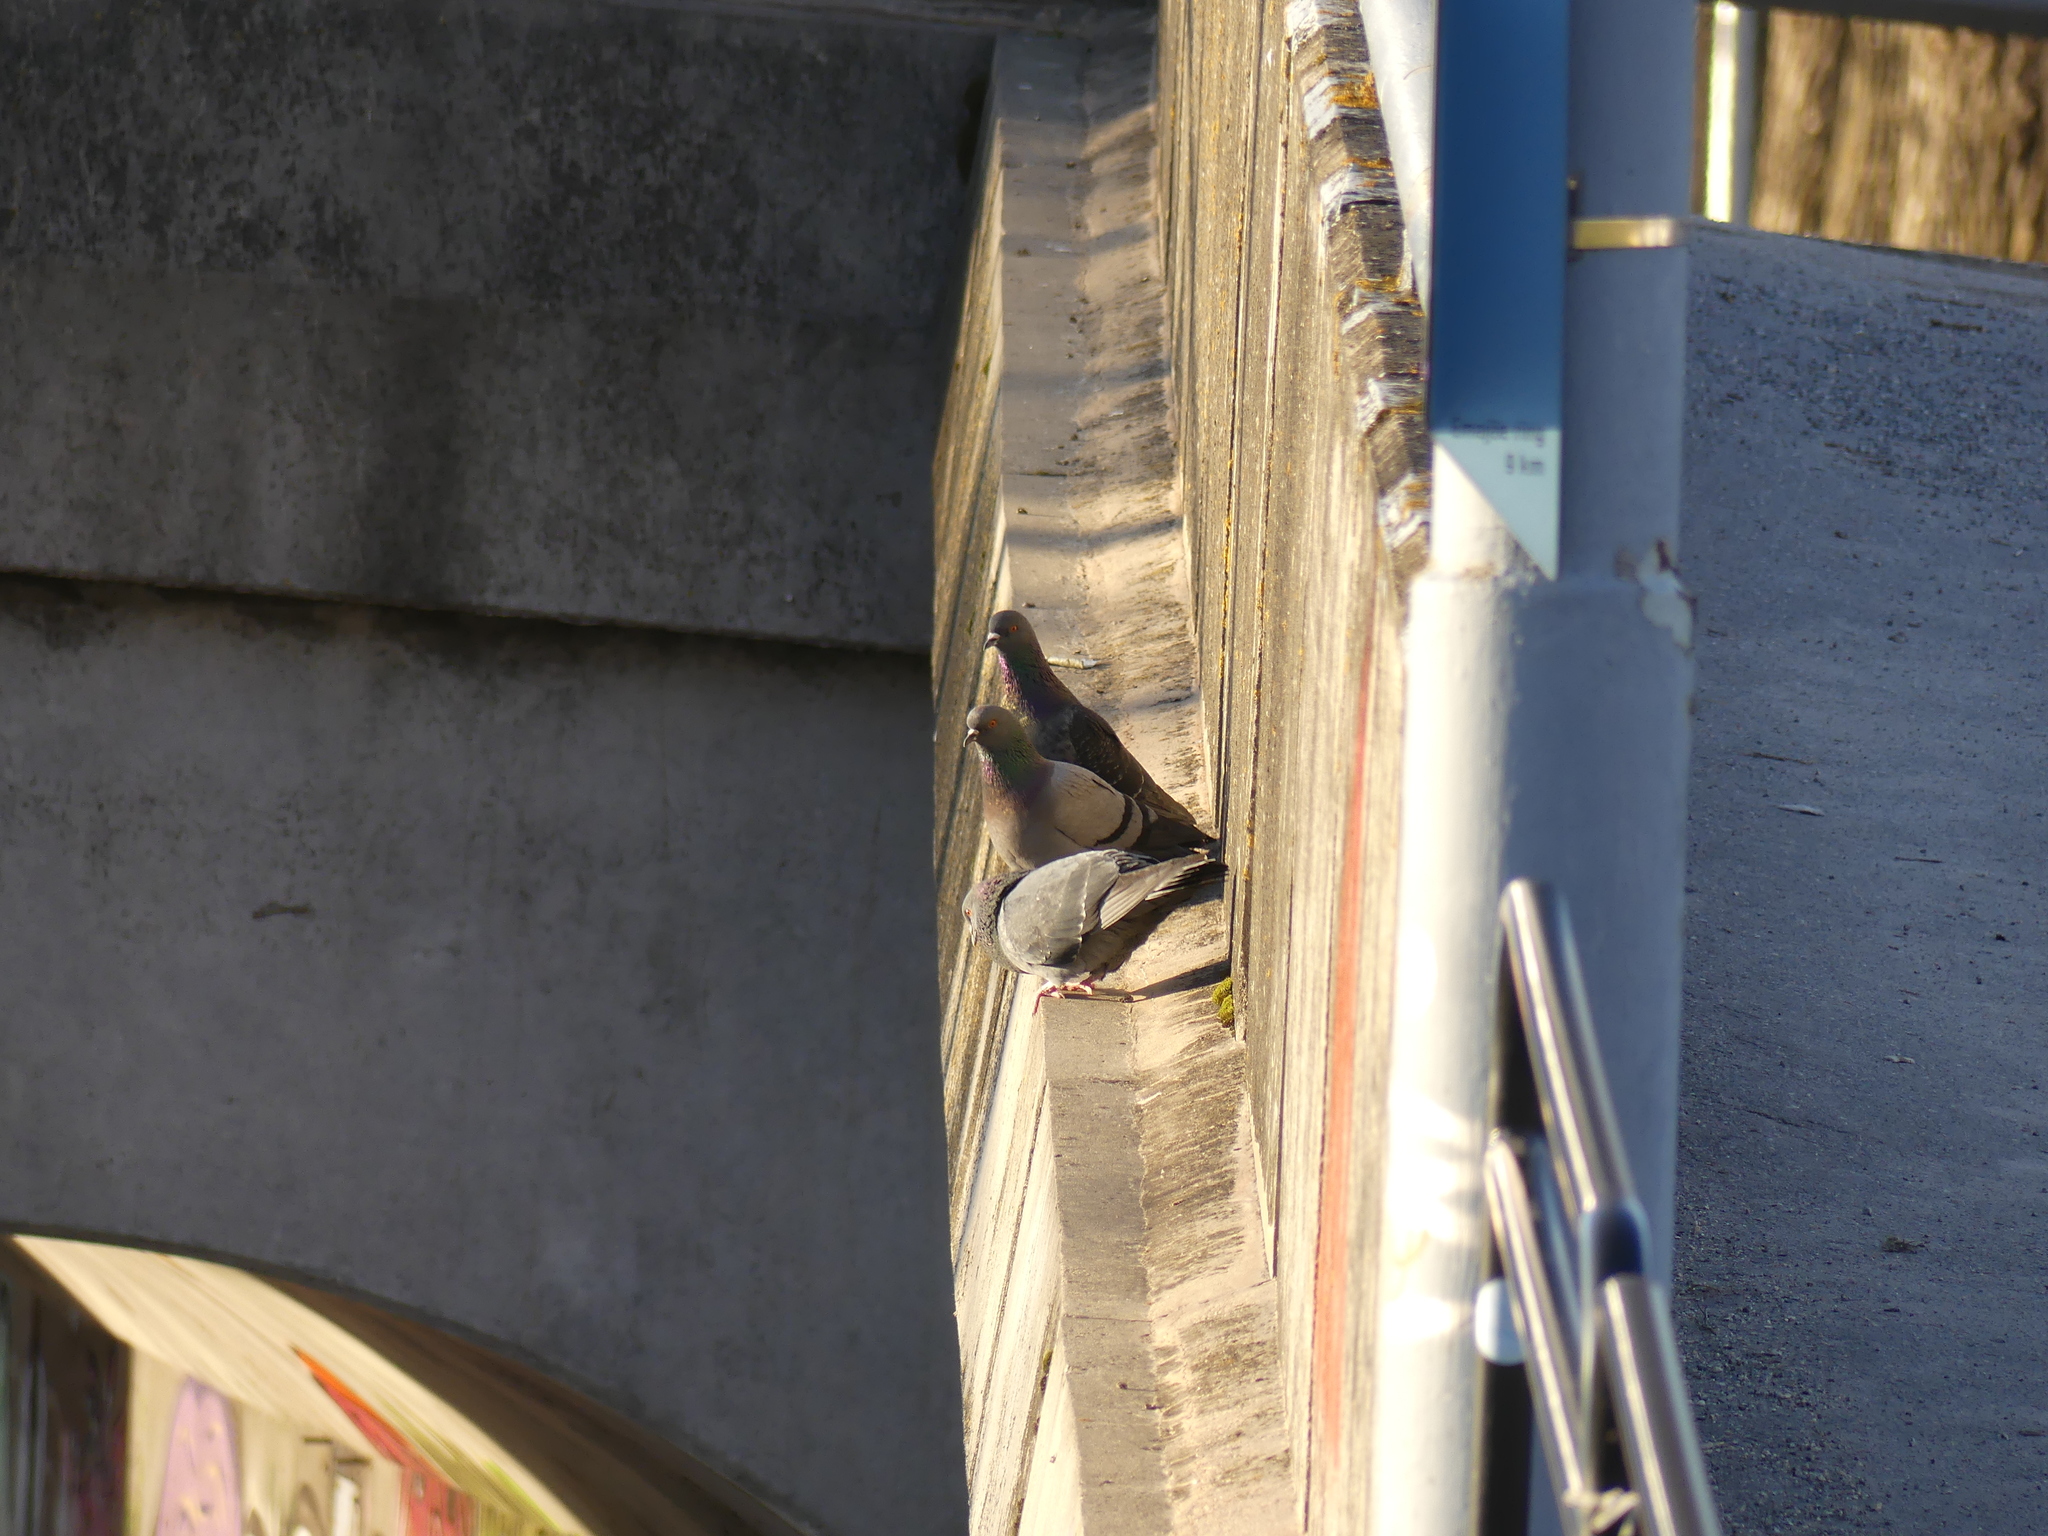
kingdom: Animalia
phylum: Chordata
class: Aves
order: Columbiformes
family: Columbidae
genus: Columba
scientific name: Columba livia
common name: Rock pigeon
